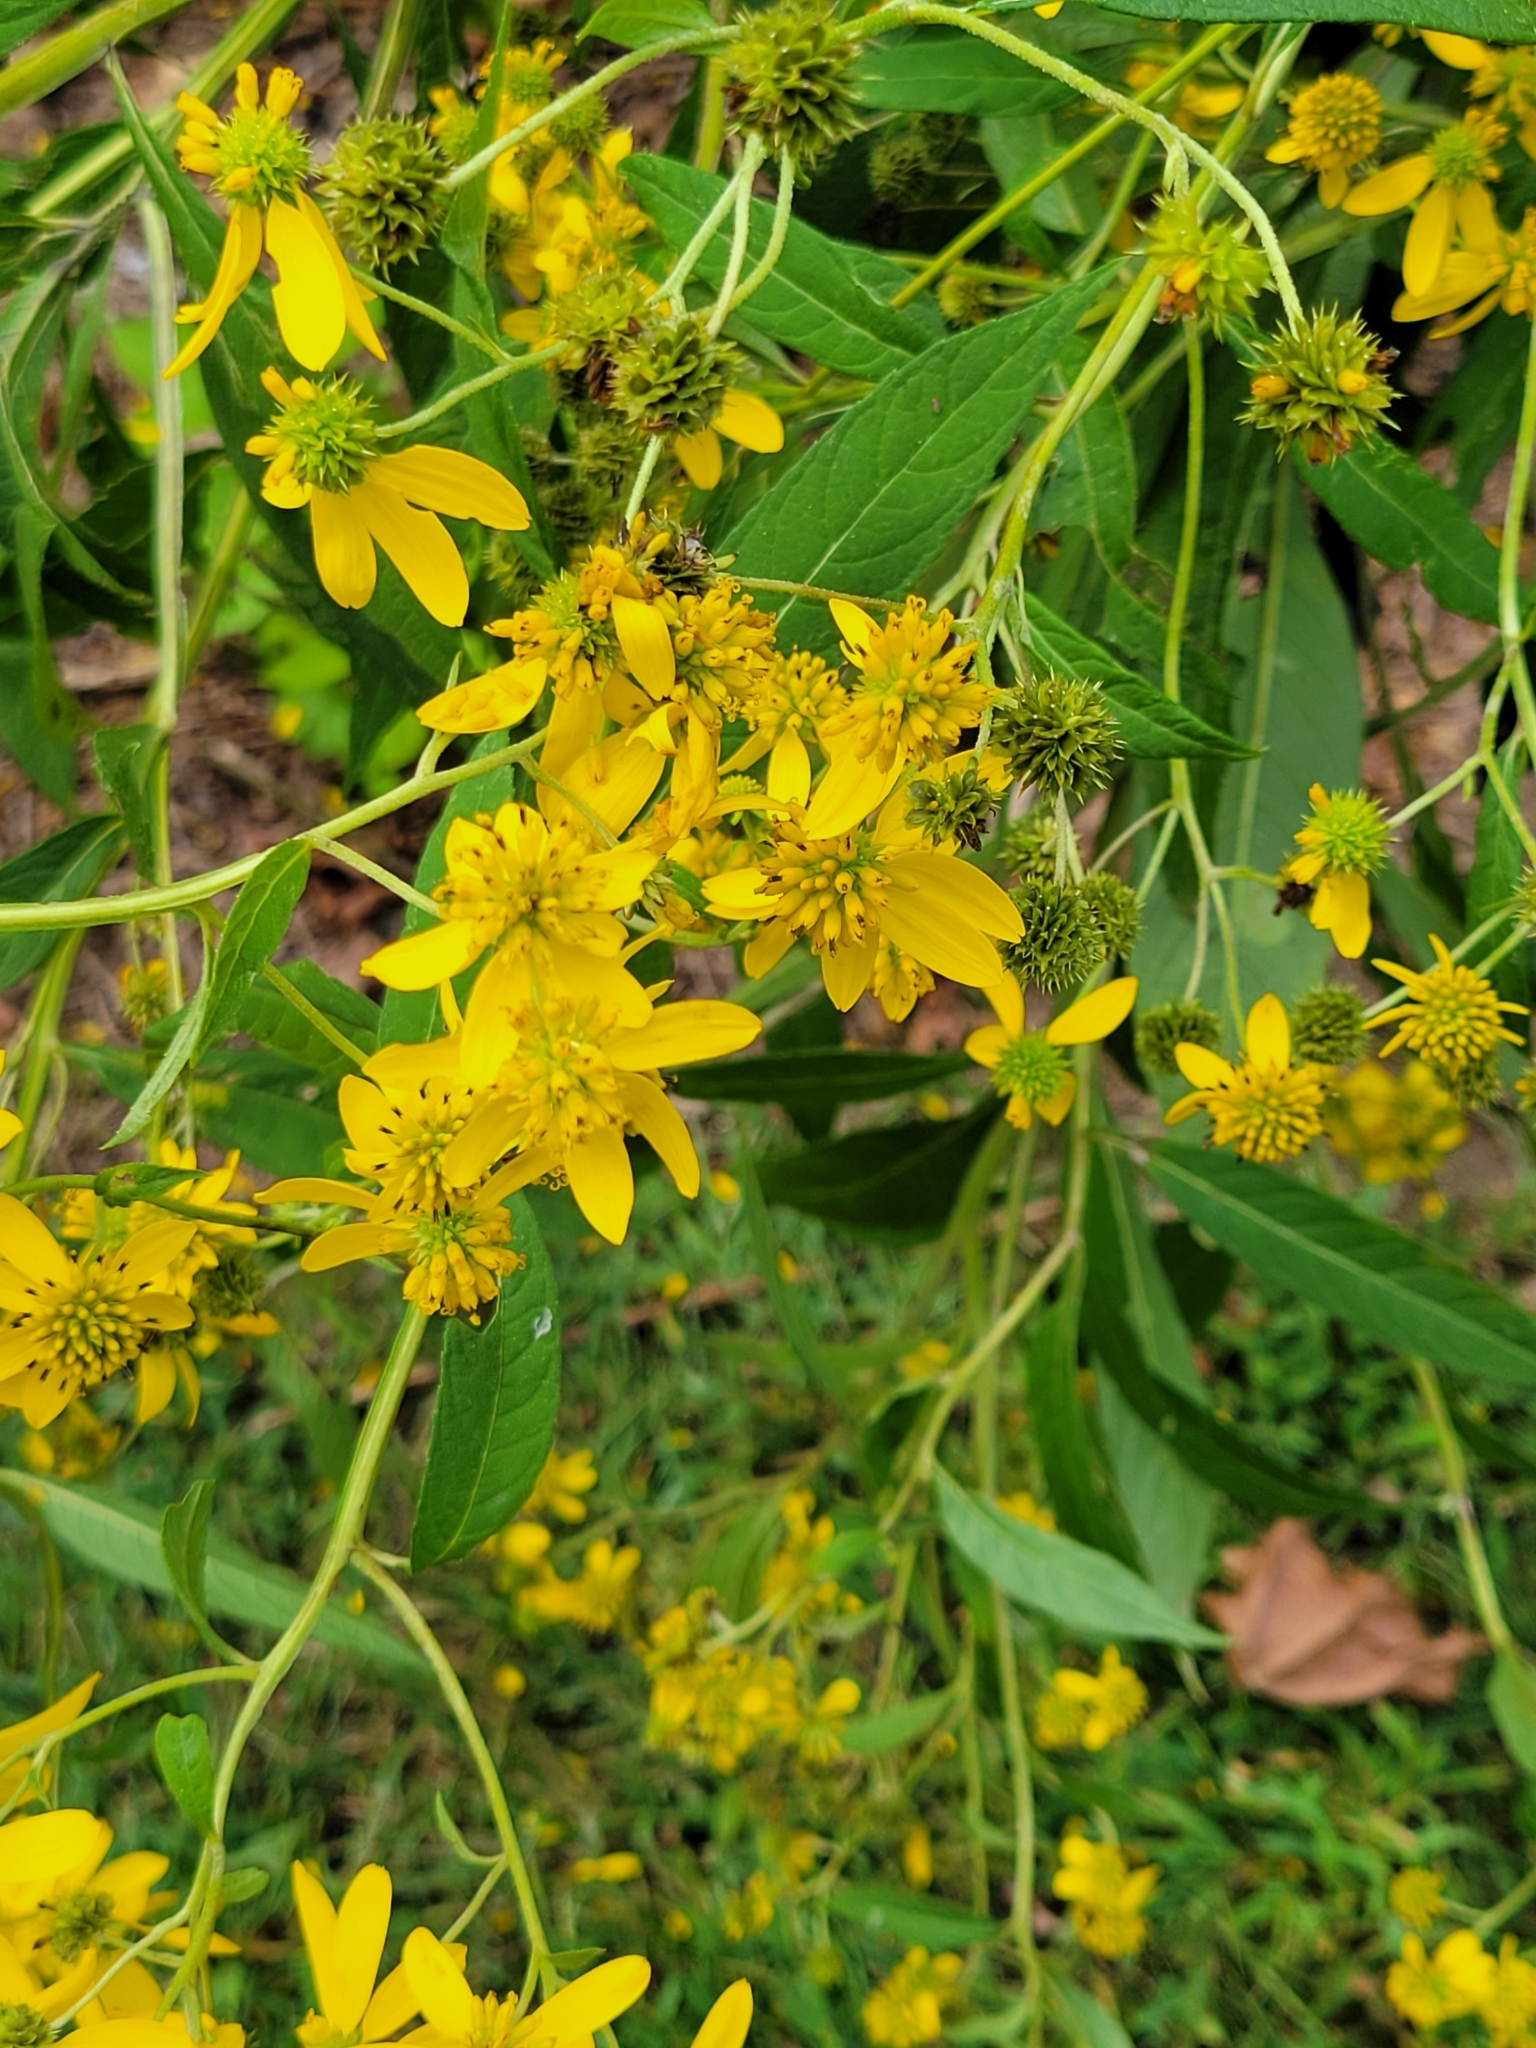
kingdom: Plantae
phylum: Tracheophyta
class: Magnoliopsida
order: Asterales
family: Asteraceae
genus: Verbesina
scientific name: Verbesina alternifolia
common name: Wingstem
